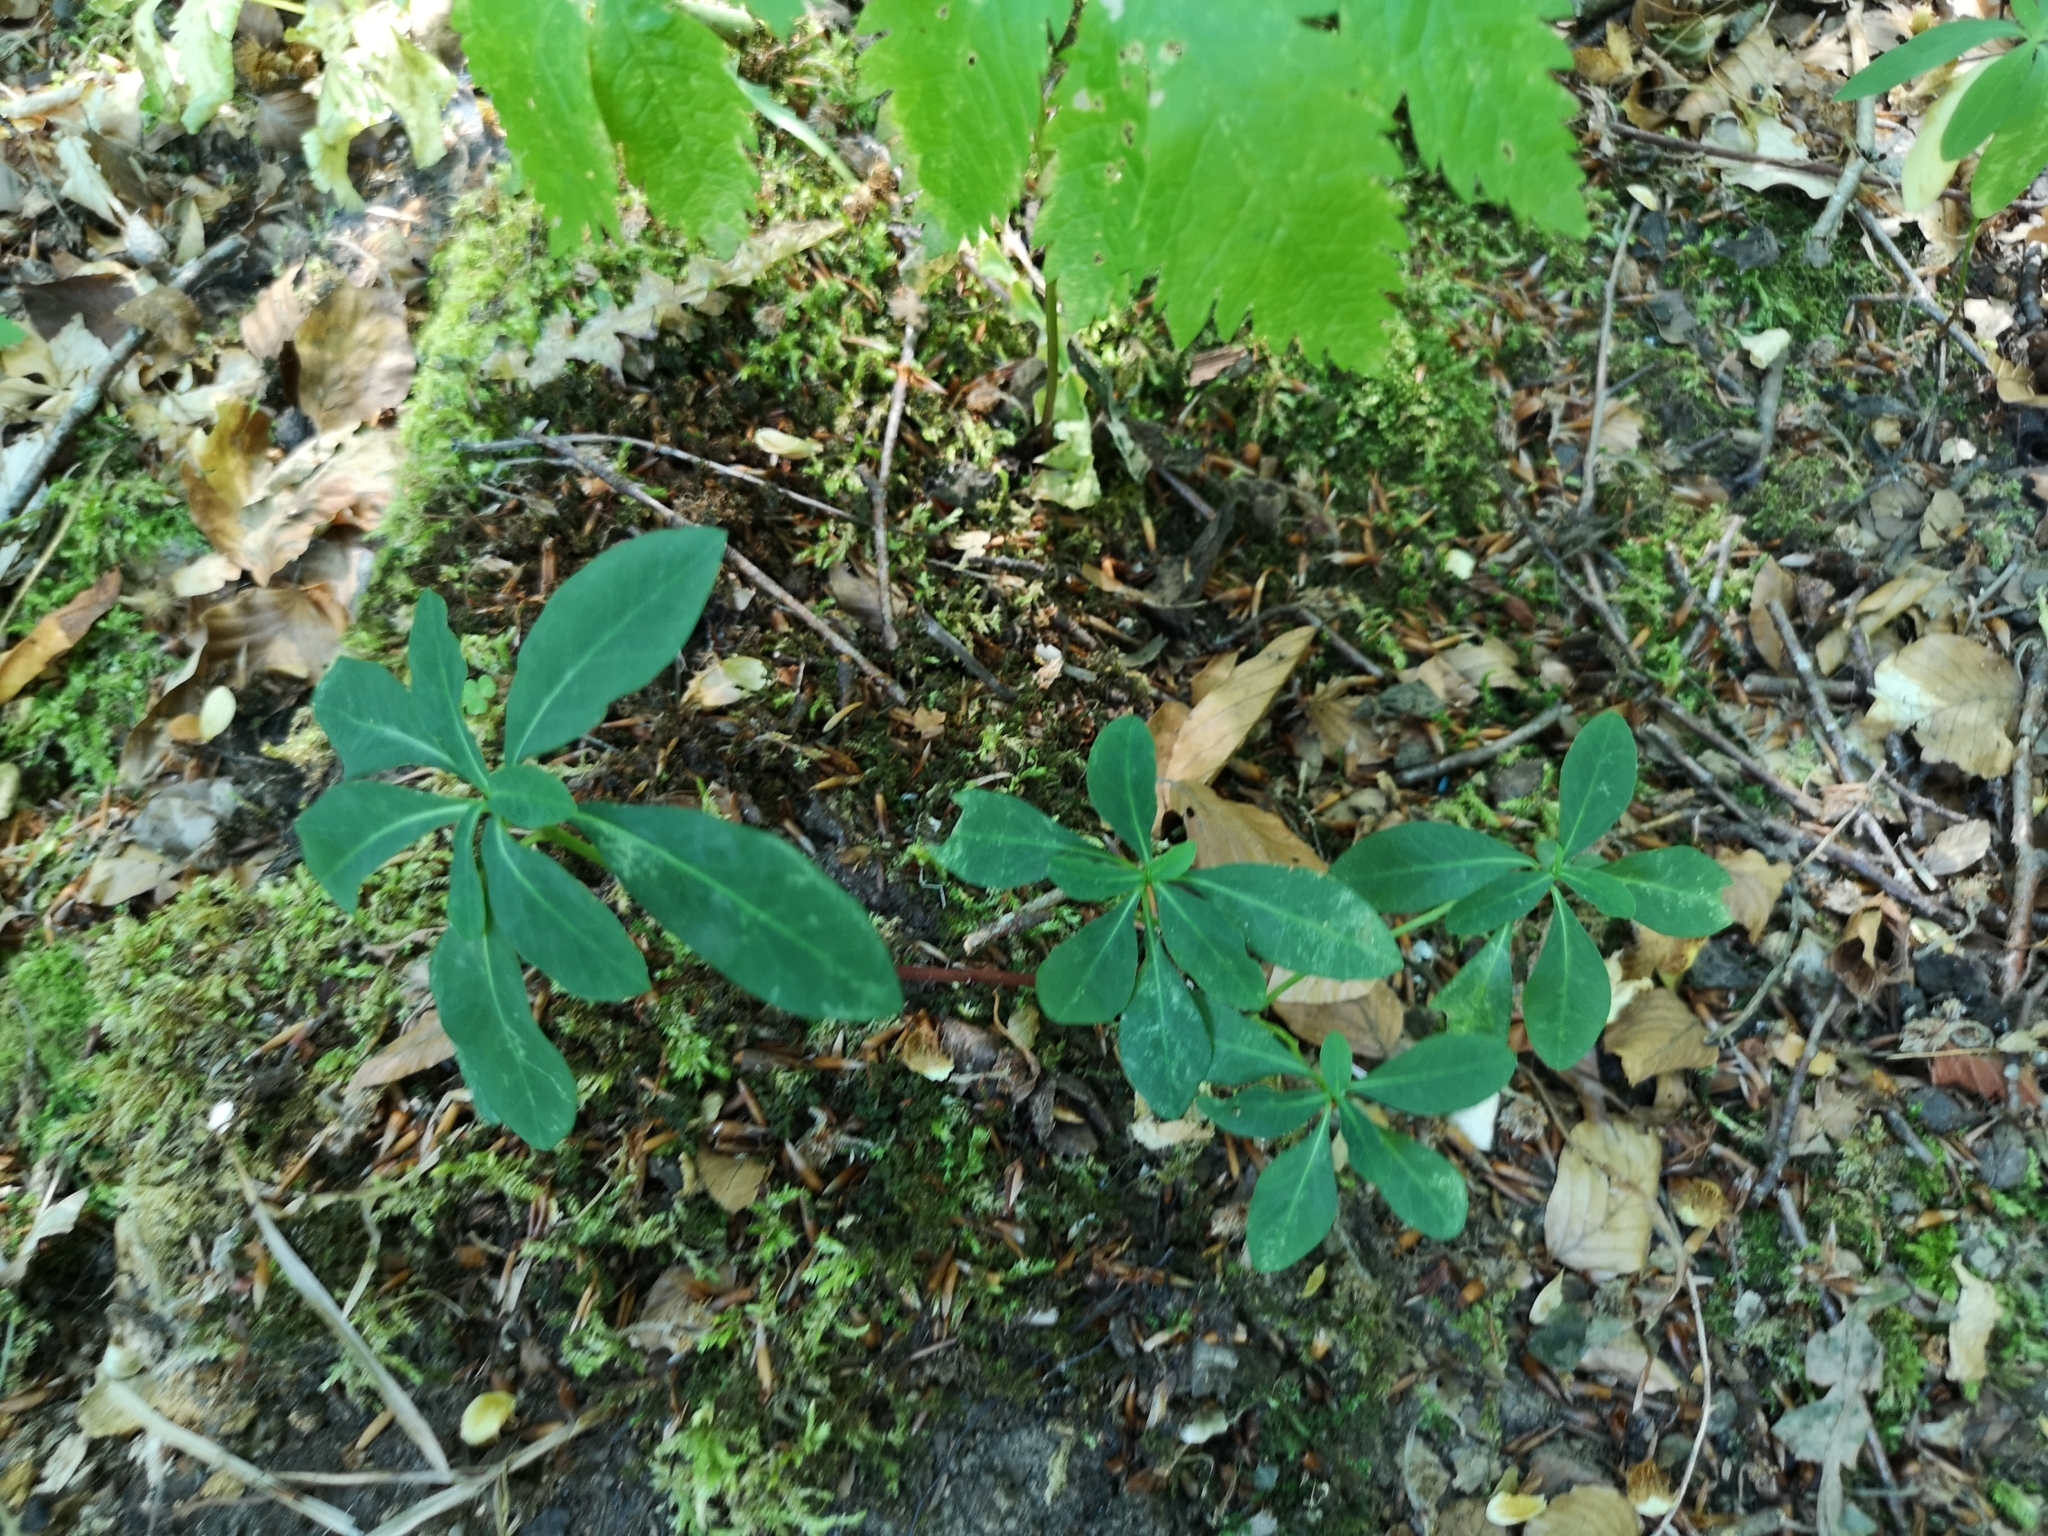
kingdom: Plantae
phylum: Tracheophyta
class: Magnoliopsida
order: Malpighiales
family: Euphorbiaceae
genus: Euphorbia
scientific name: Euphorbia amygdaloides
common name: Wood spurge
